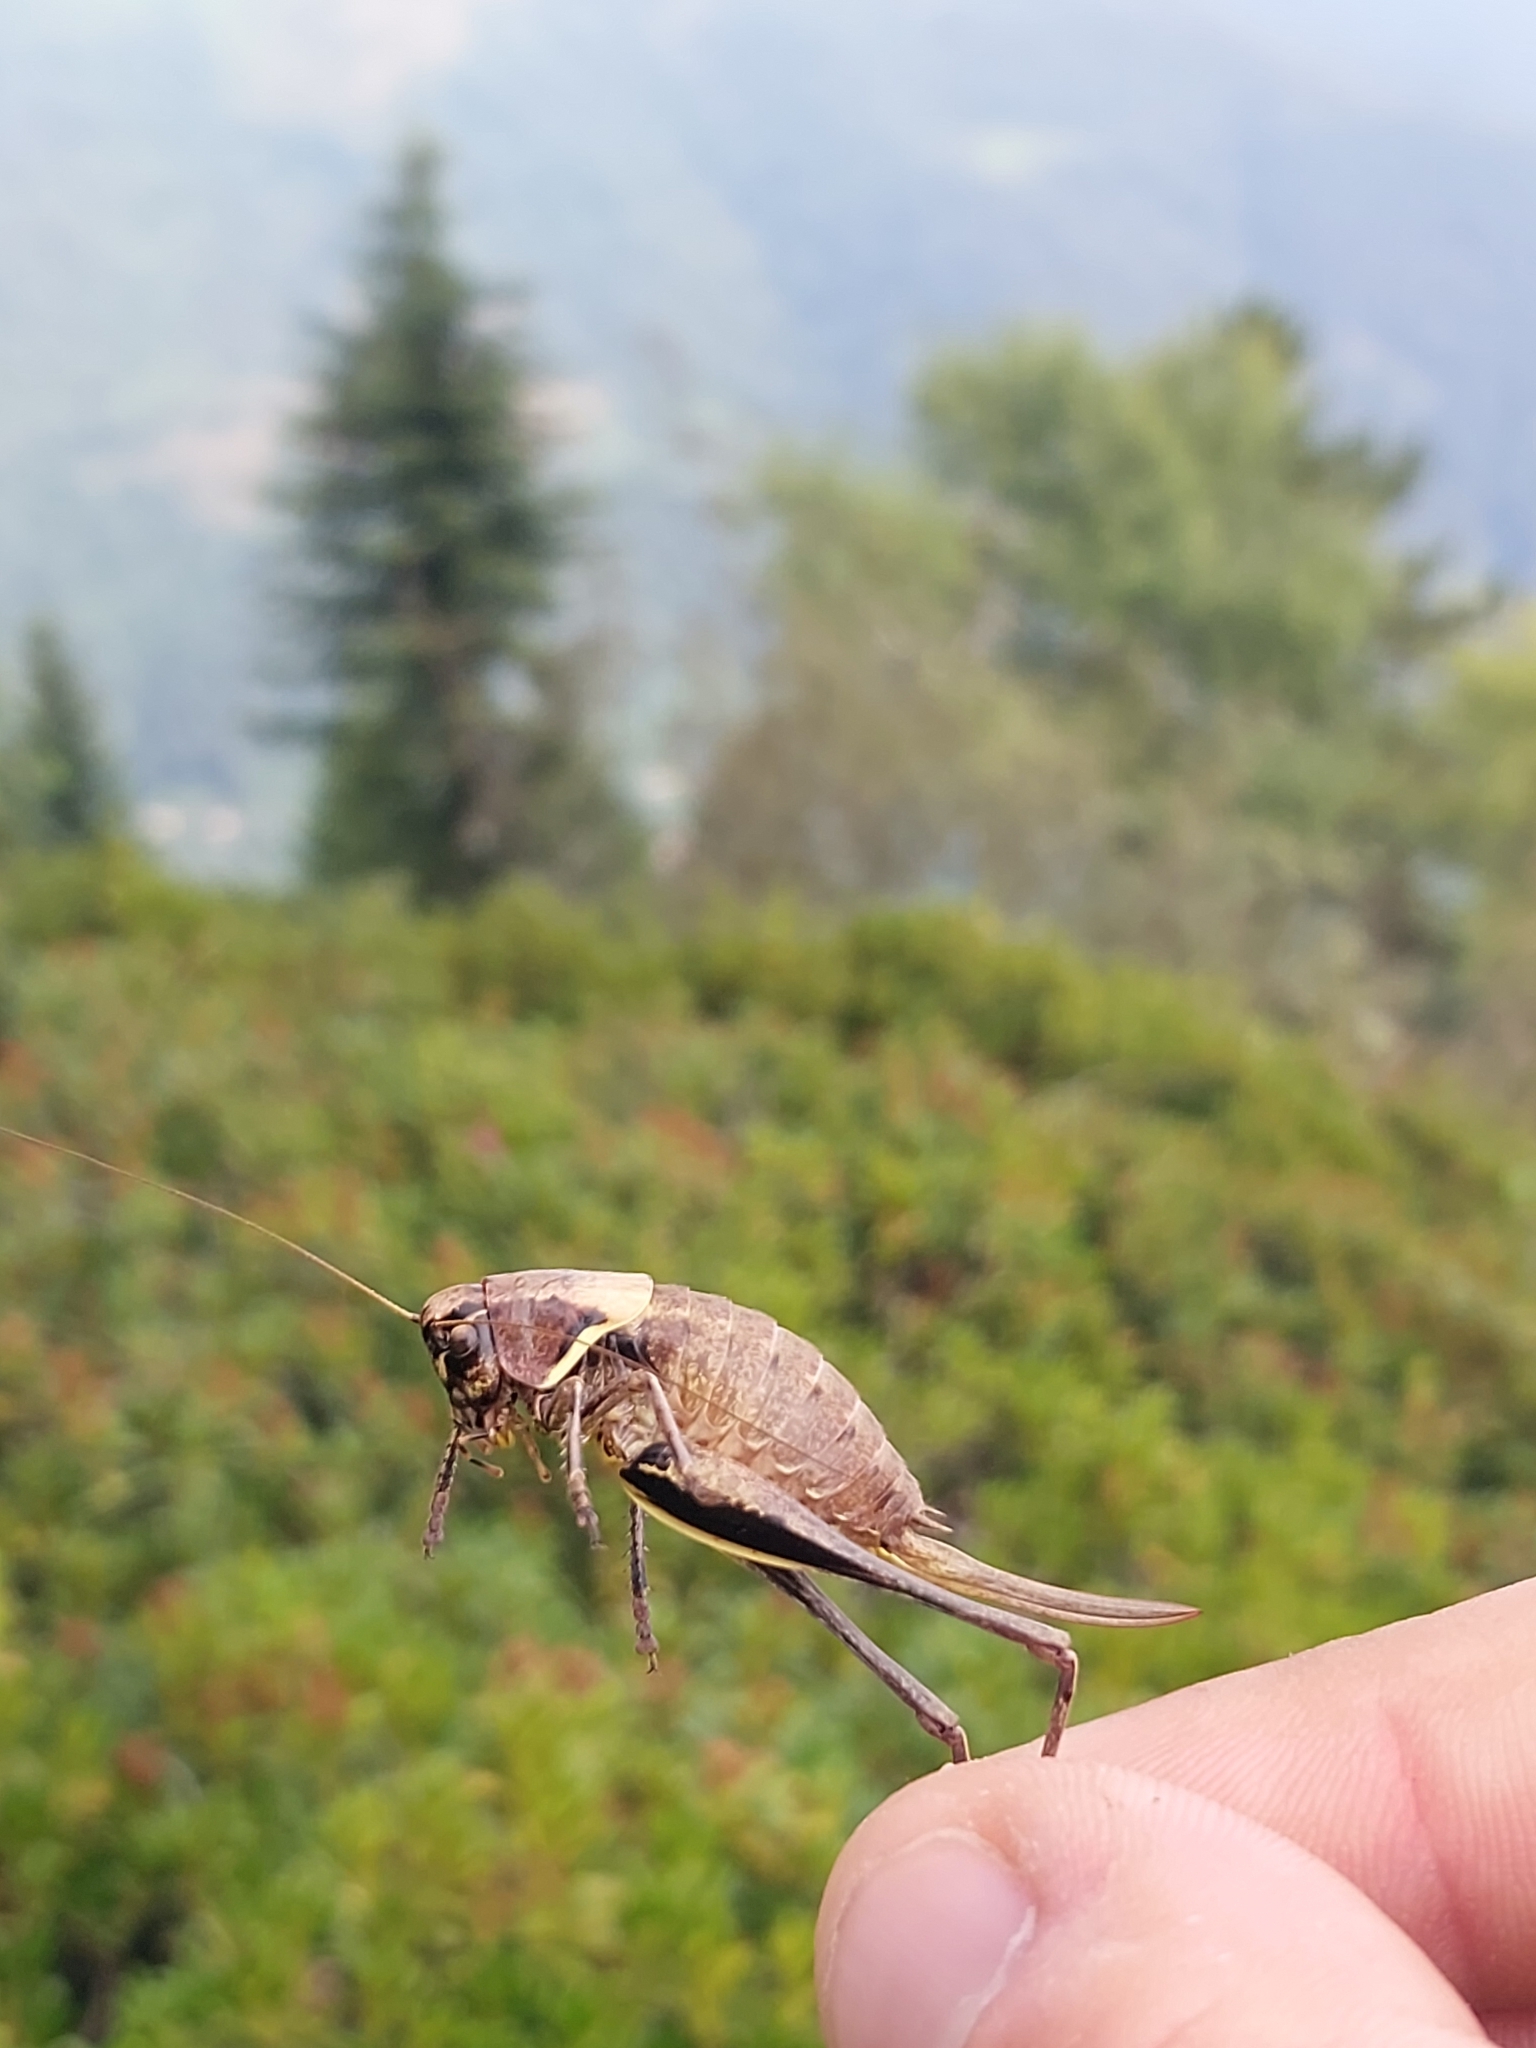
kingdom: Animalia
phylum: Arthropoda
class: Insecta
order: Orthoptera
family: Tettigoniidae
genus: Pholidoptera
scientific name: Pholidoptera aptera
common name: Alpine dark bush-cricket
